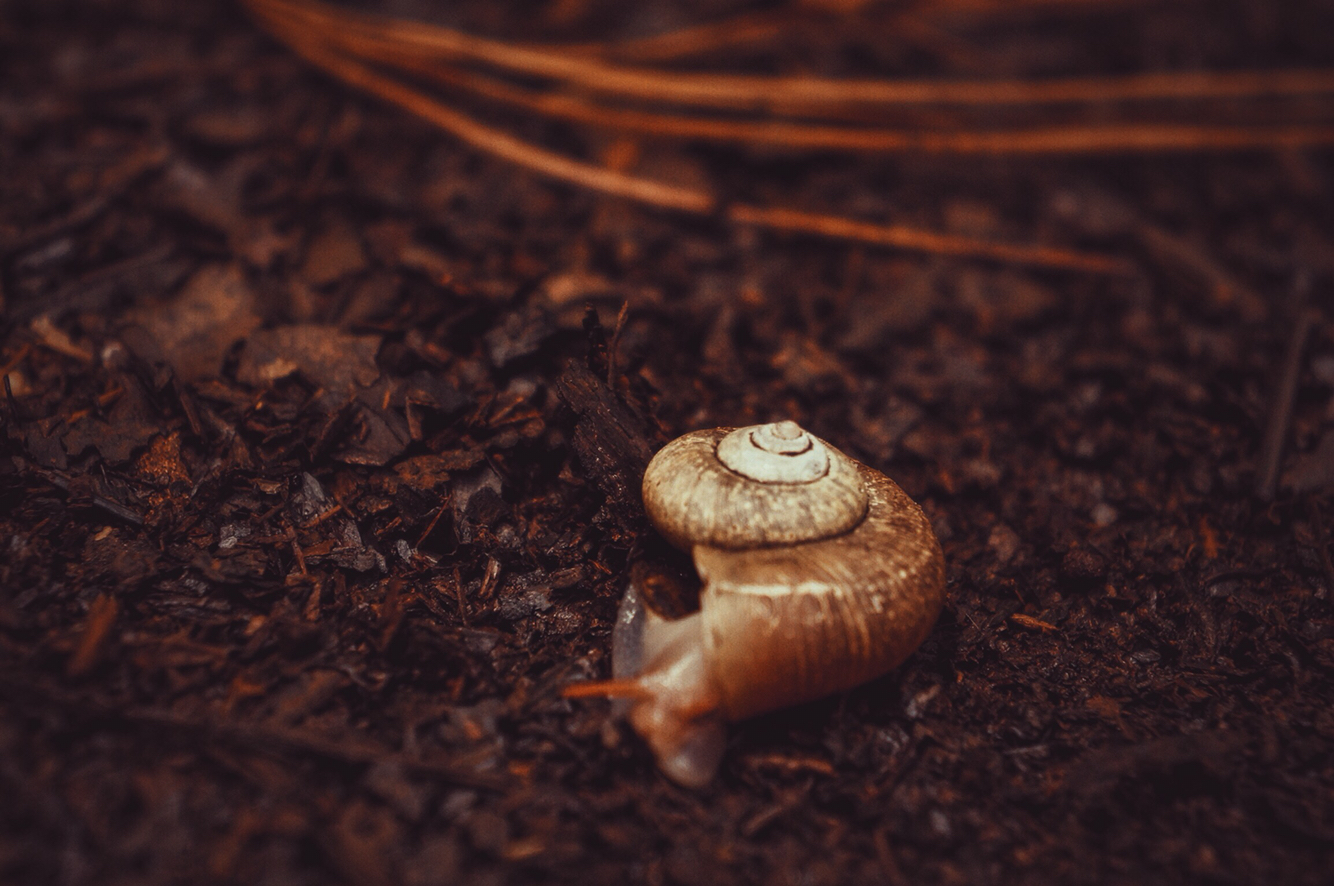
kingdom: Animalia
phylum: Mollusca
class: Gastropoda
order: Architaenioglossa
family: Megalomastomatidae
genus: Aperostoma
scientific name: Aperostoma palmeri
